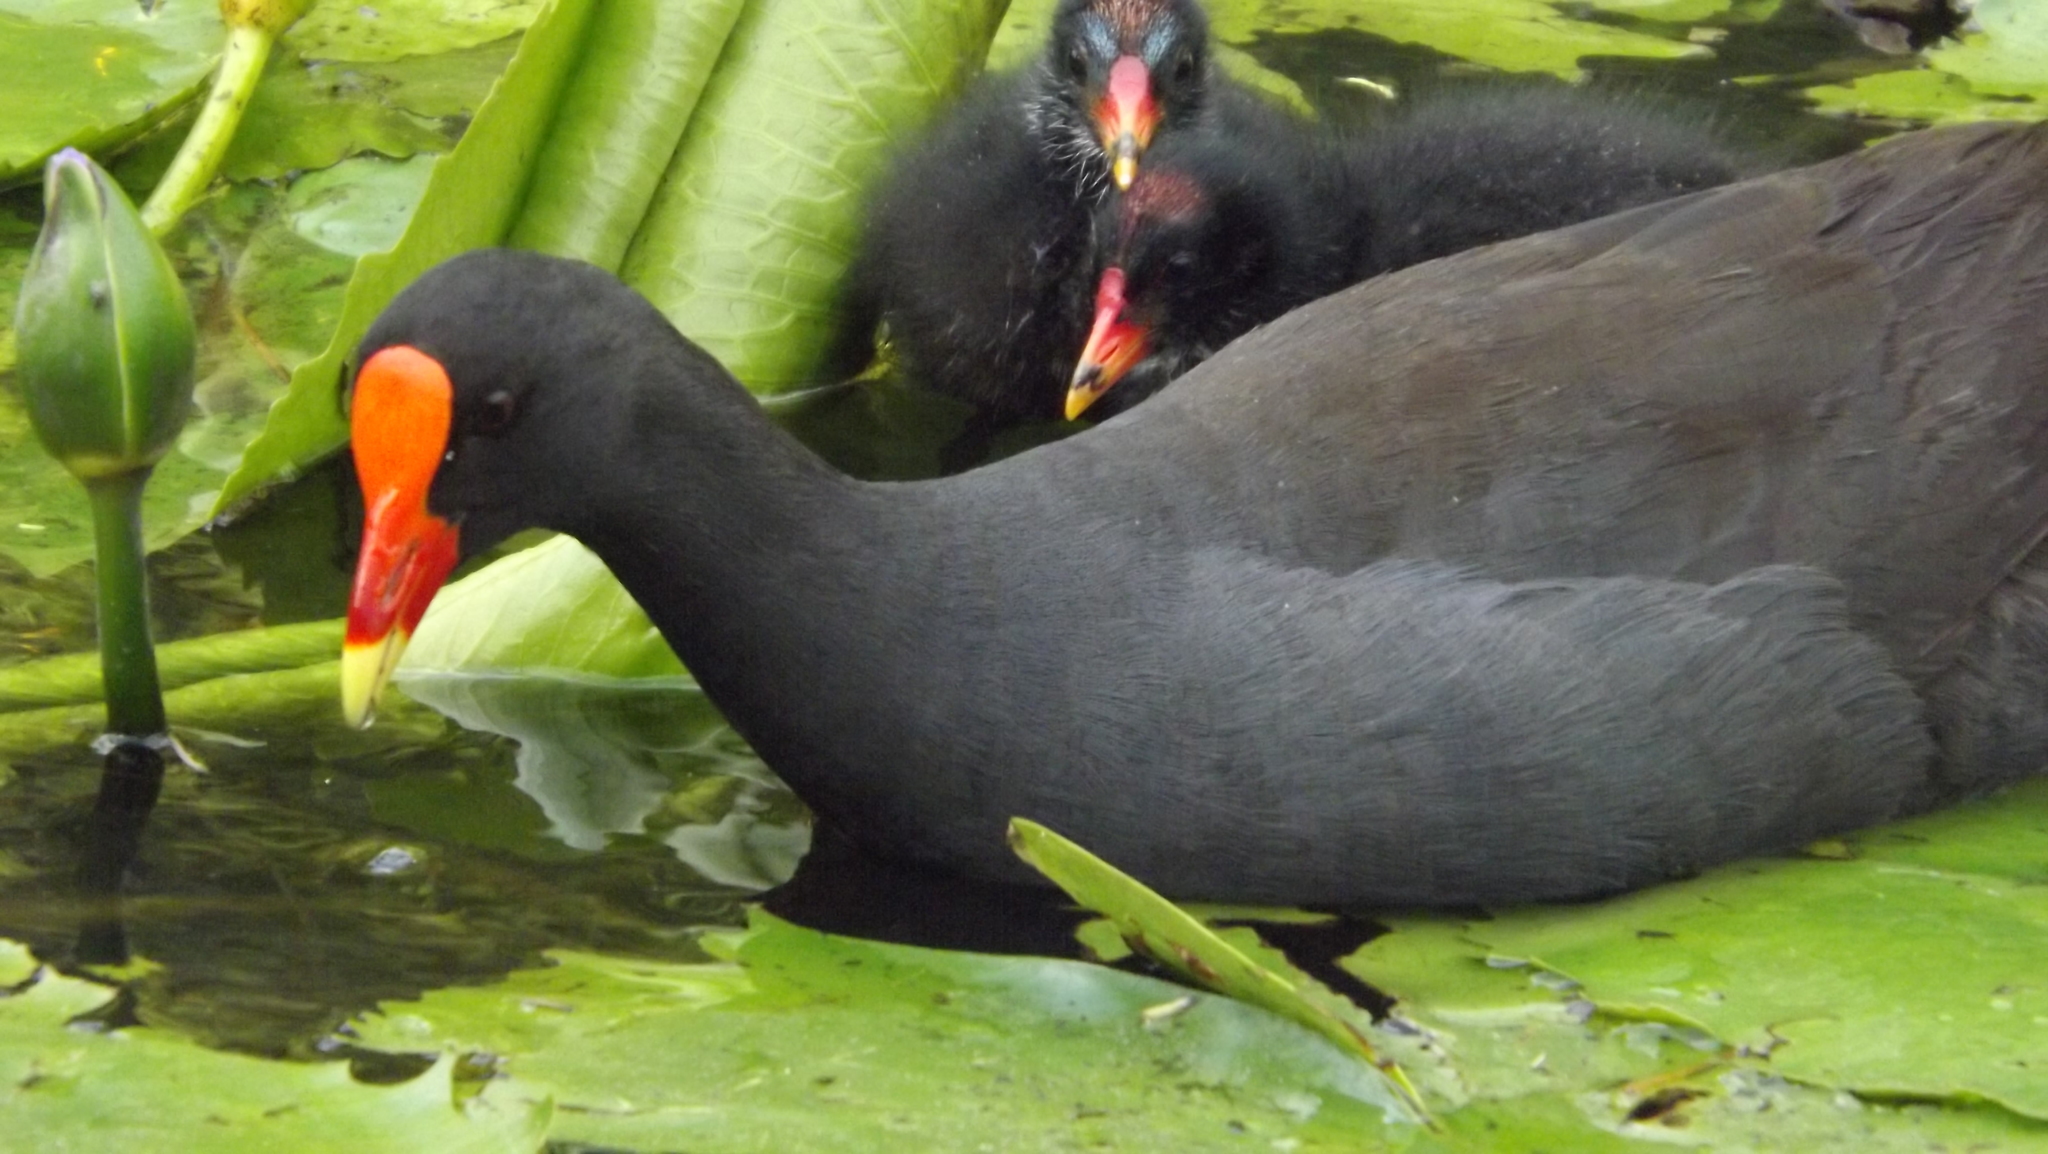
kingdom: Animalia
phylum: Chordata
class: Aves
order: Gruiformes
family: Rallidae
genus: Gallinula
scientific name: Gallinula tenebrosa
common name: Dusky moorhen
